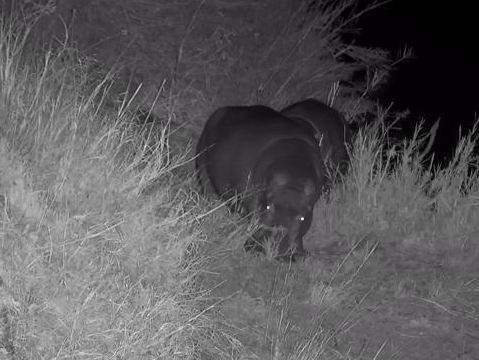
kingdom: Animalia
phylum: Chordata
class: Mammalia
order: Artiodactyla
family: Hippopotamidae
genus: Hippopotamus
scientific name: Hippopotamus amphibius
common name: Common hippopotamus
